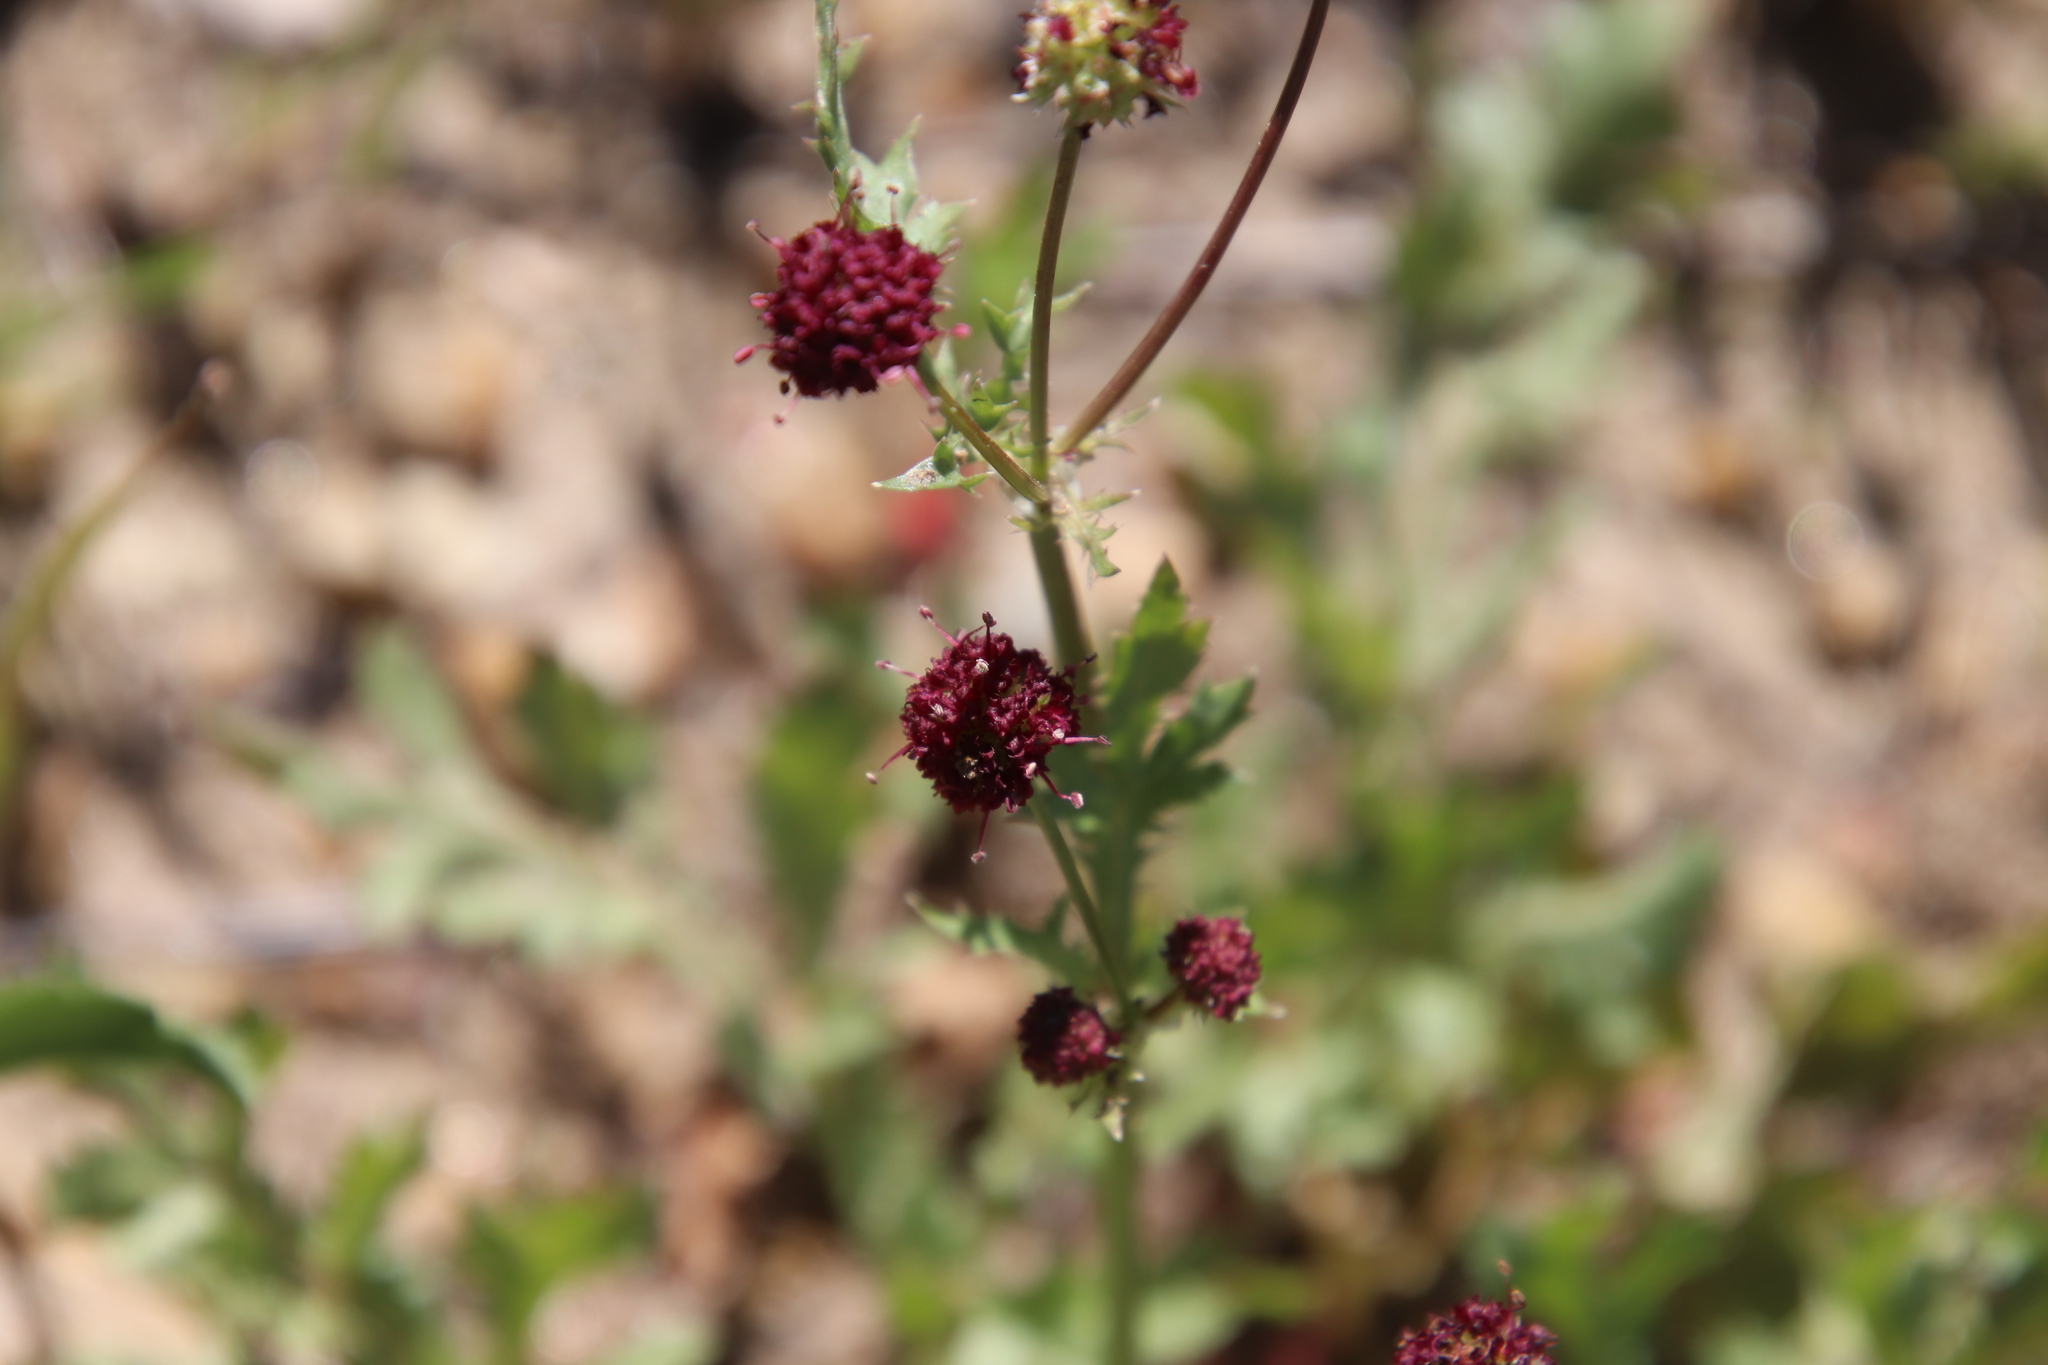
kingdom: Plantae
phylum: Tracheophyta
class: Magnoliopsida
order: Apiales
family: Apiaceae
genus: Sanicula
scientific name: Sanicula bipinnatifida
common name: Shoe-buttons
